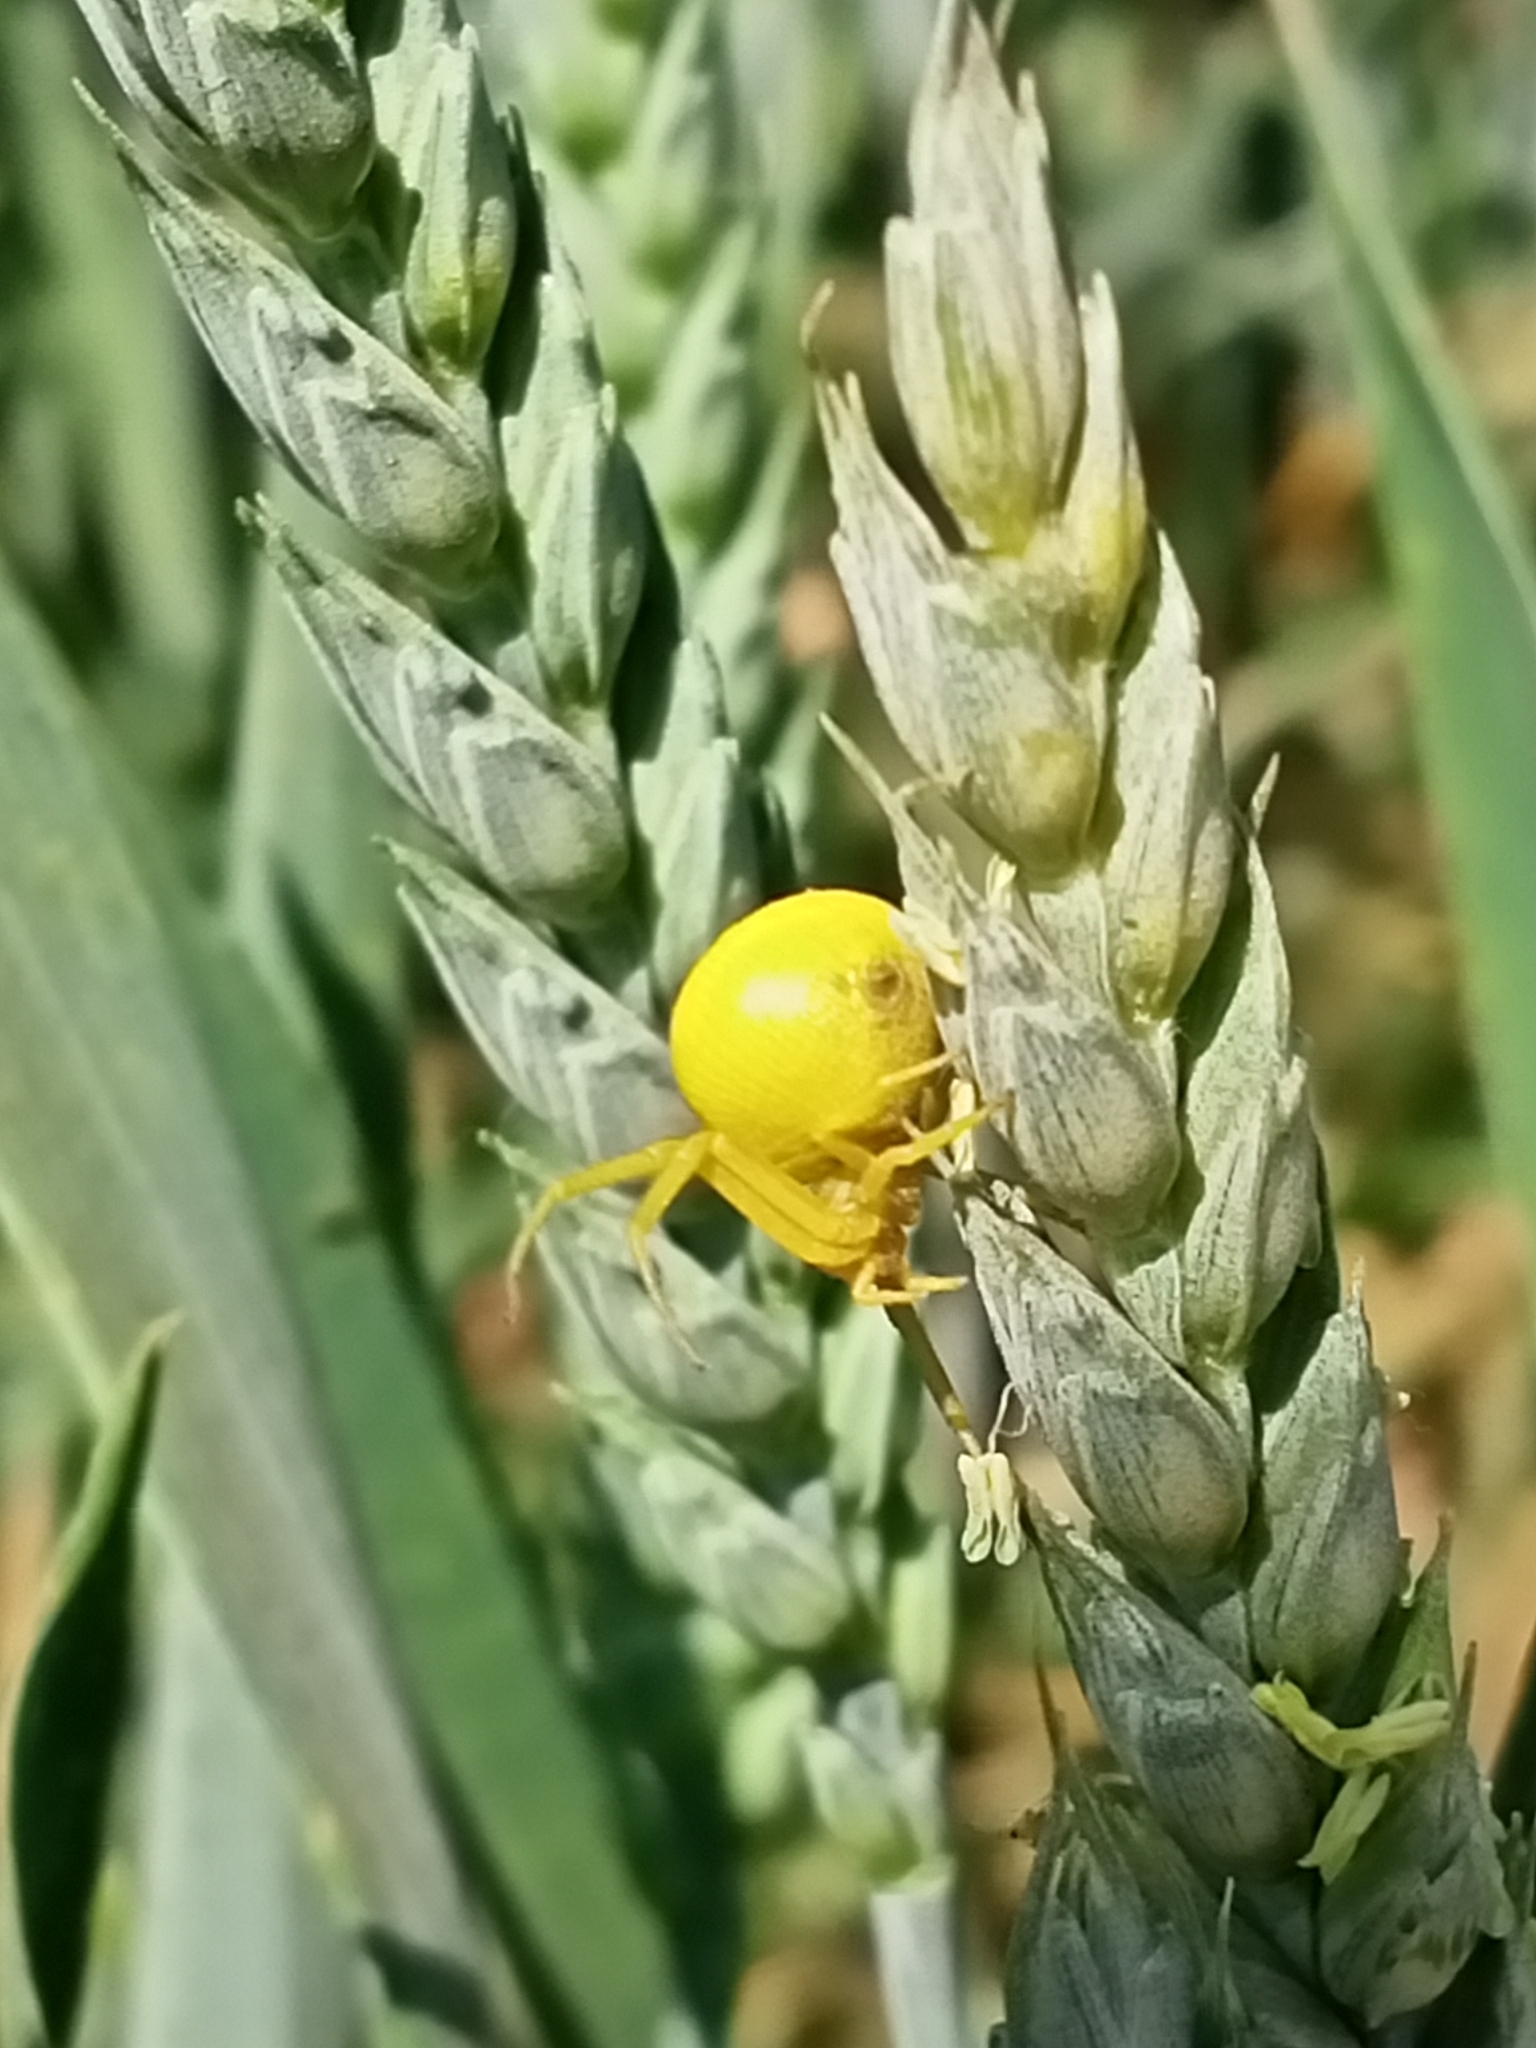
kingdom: Animalia
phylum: Arthropoda
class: Arachnida
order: Araneae
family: Thomisidae
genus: Misumena
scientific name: Misumena vatia
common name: Goldenrod crab spider
